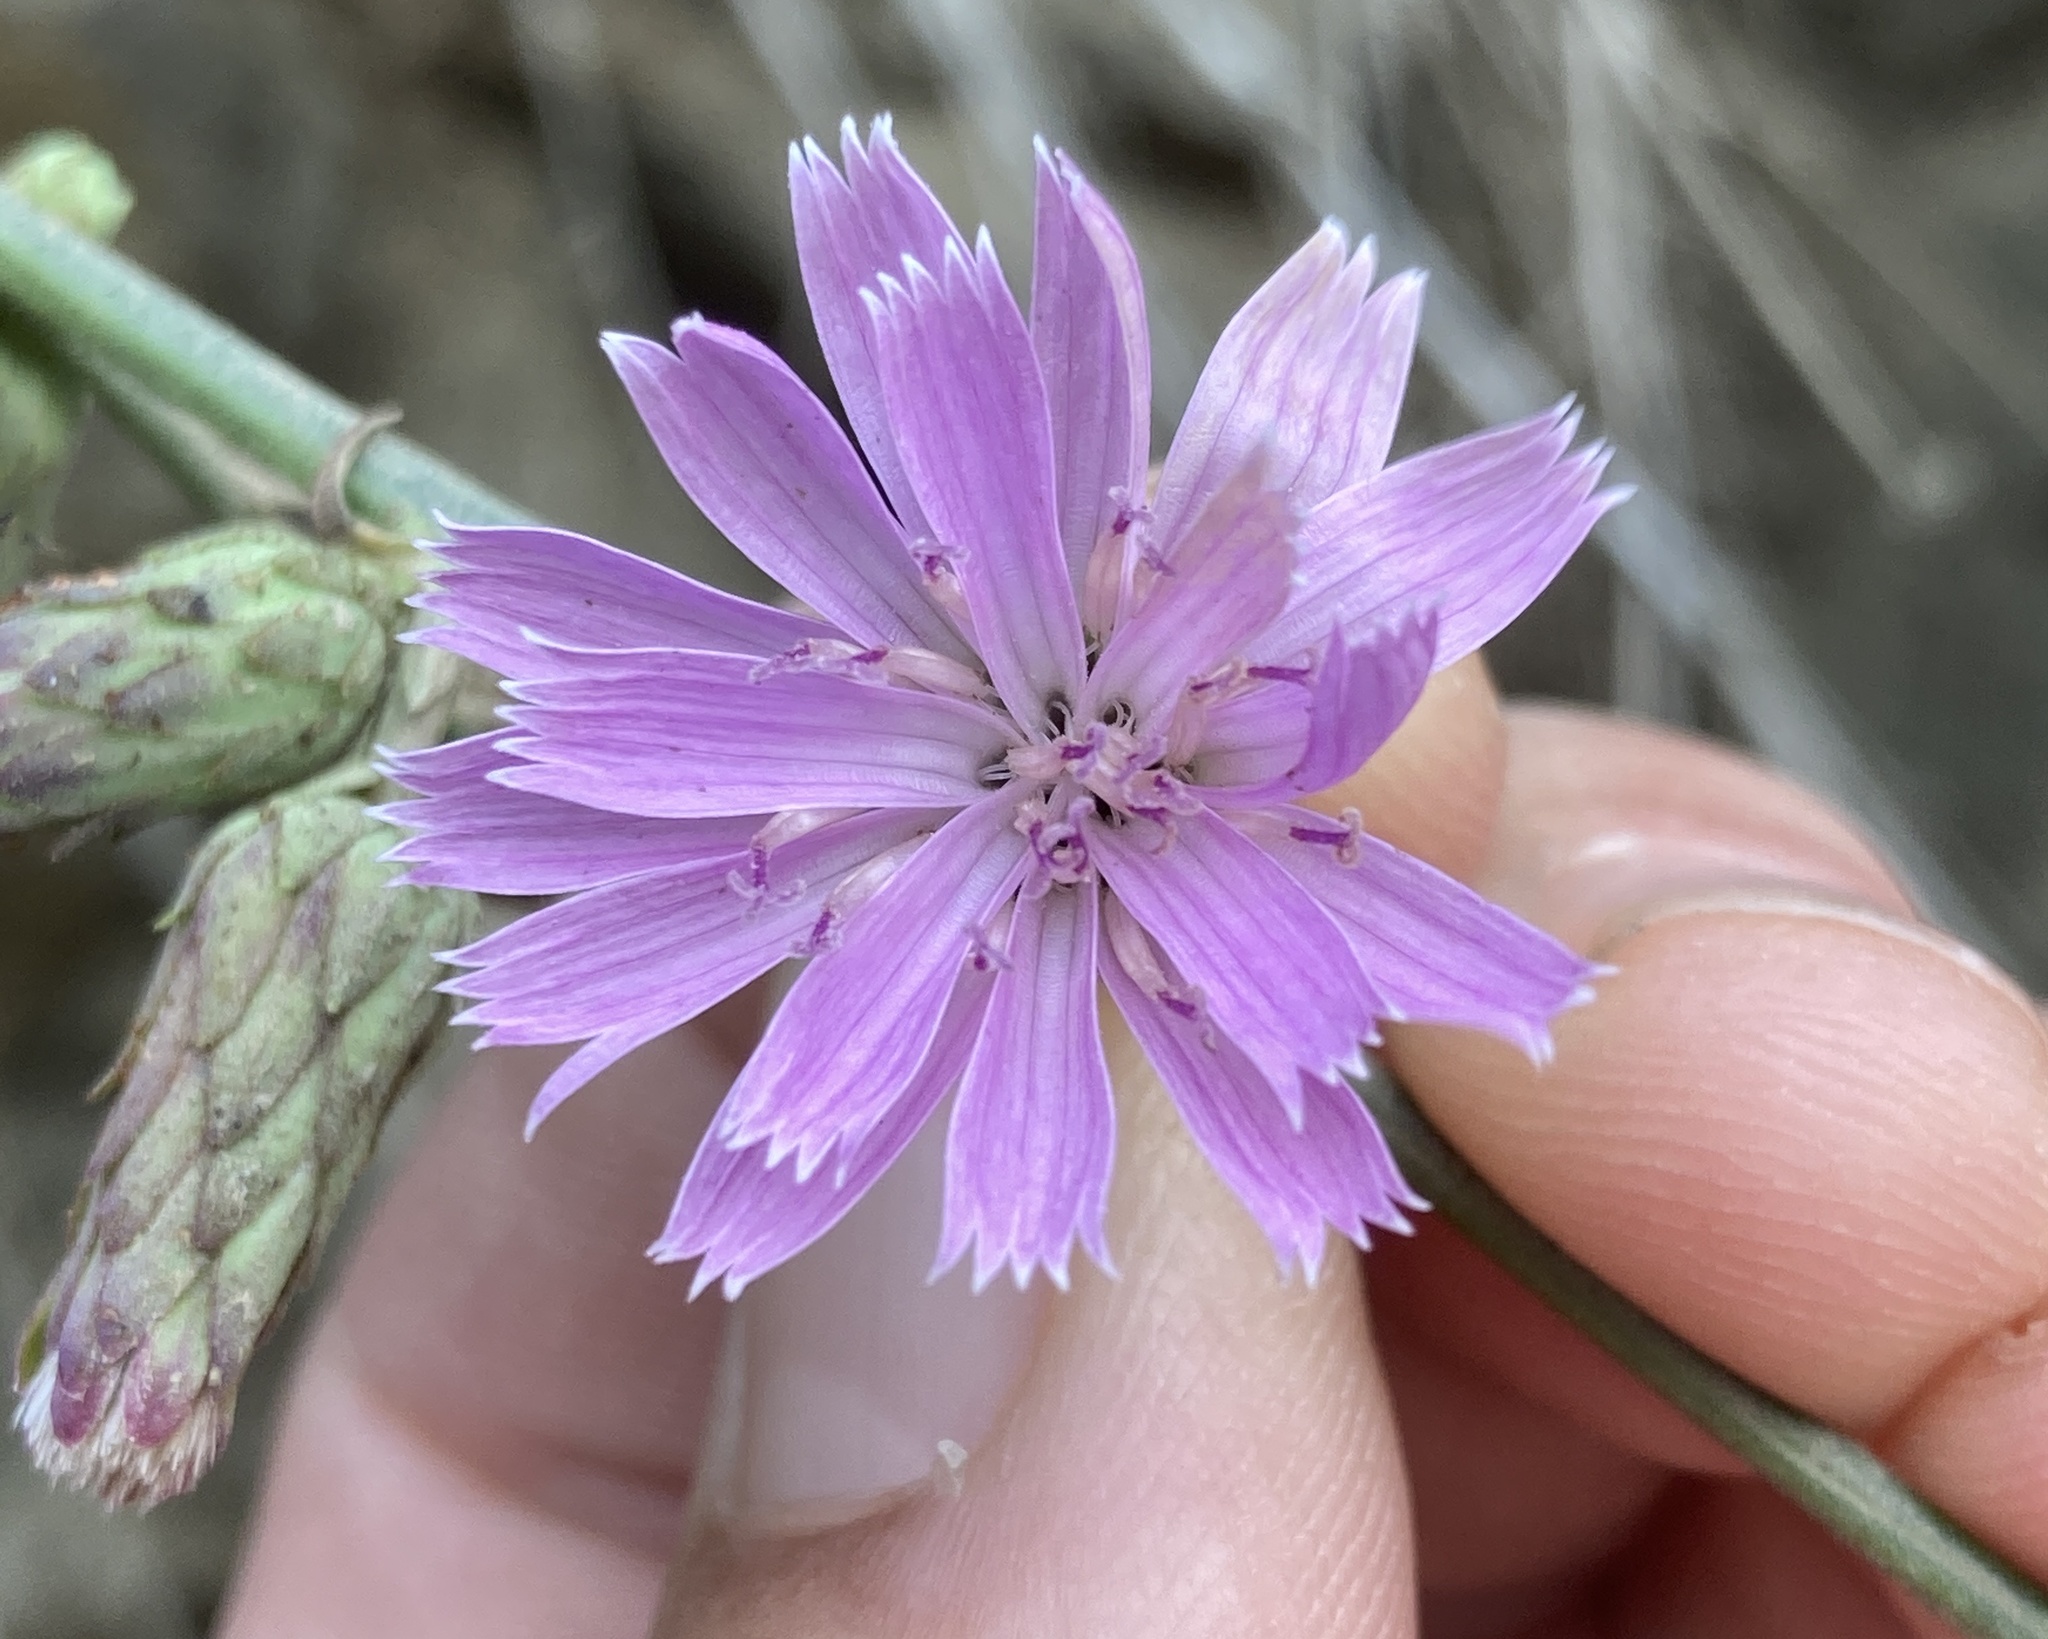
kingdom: Plantae
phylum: Tracheophyta
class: Magnoliopsida
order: Asterales
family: Asteraceae
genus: Stephanomeria
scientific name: Stephanomeria cichoriacea
